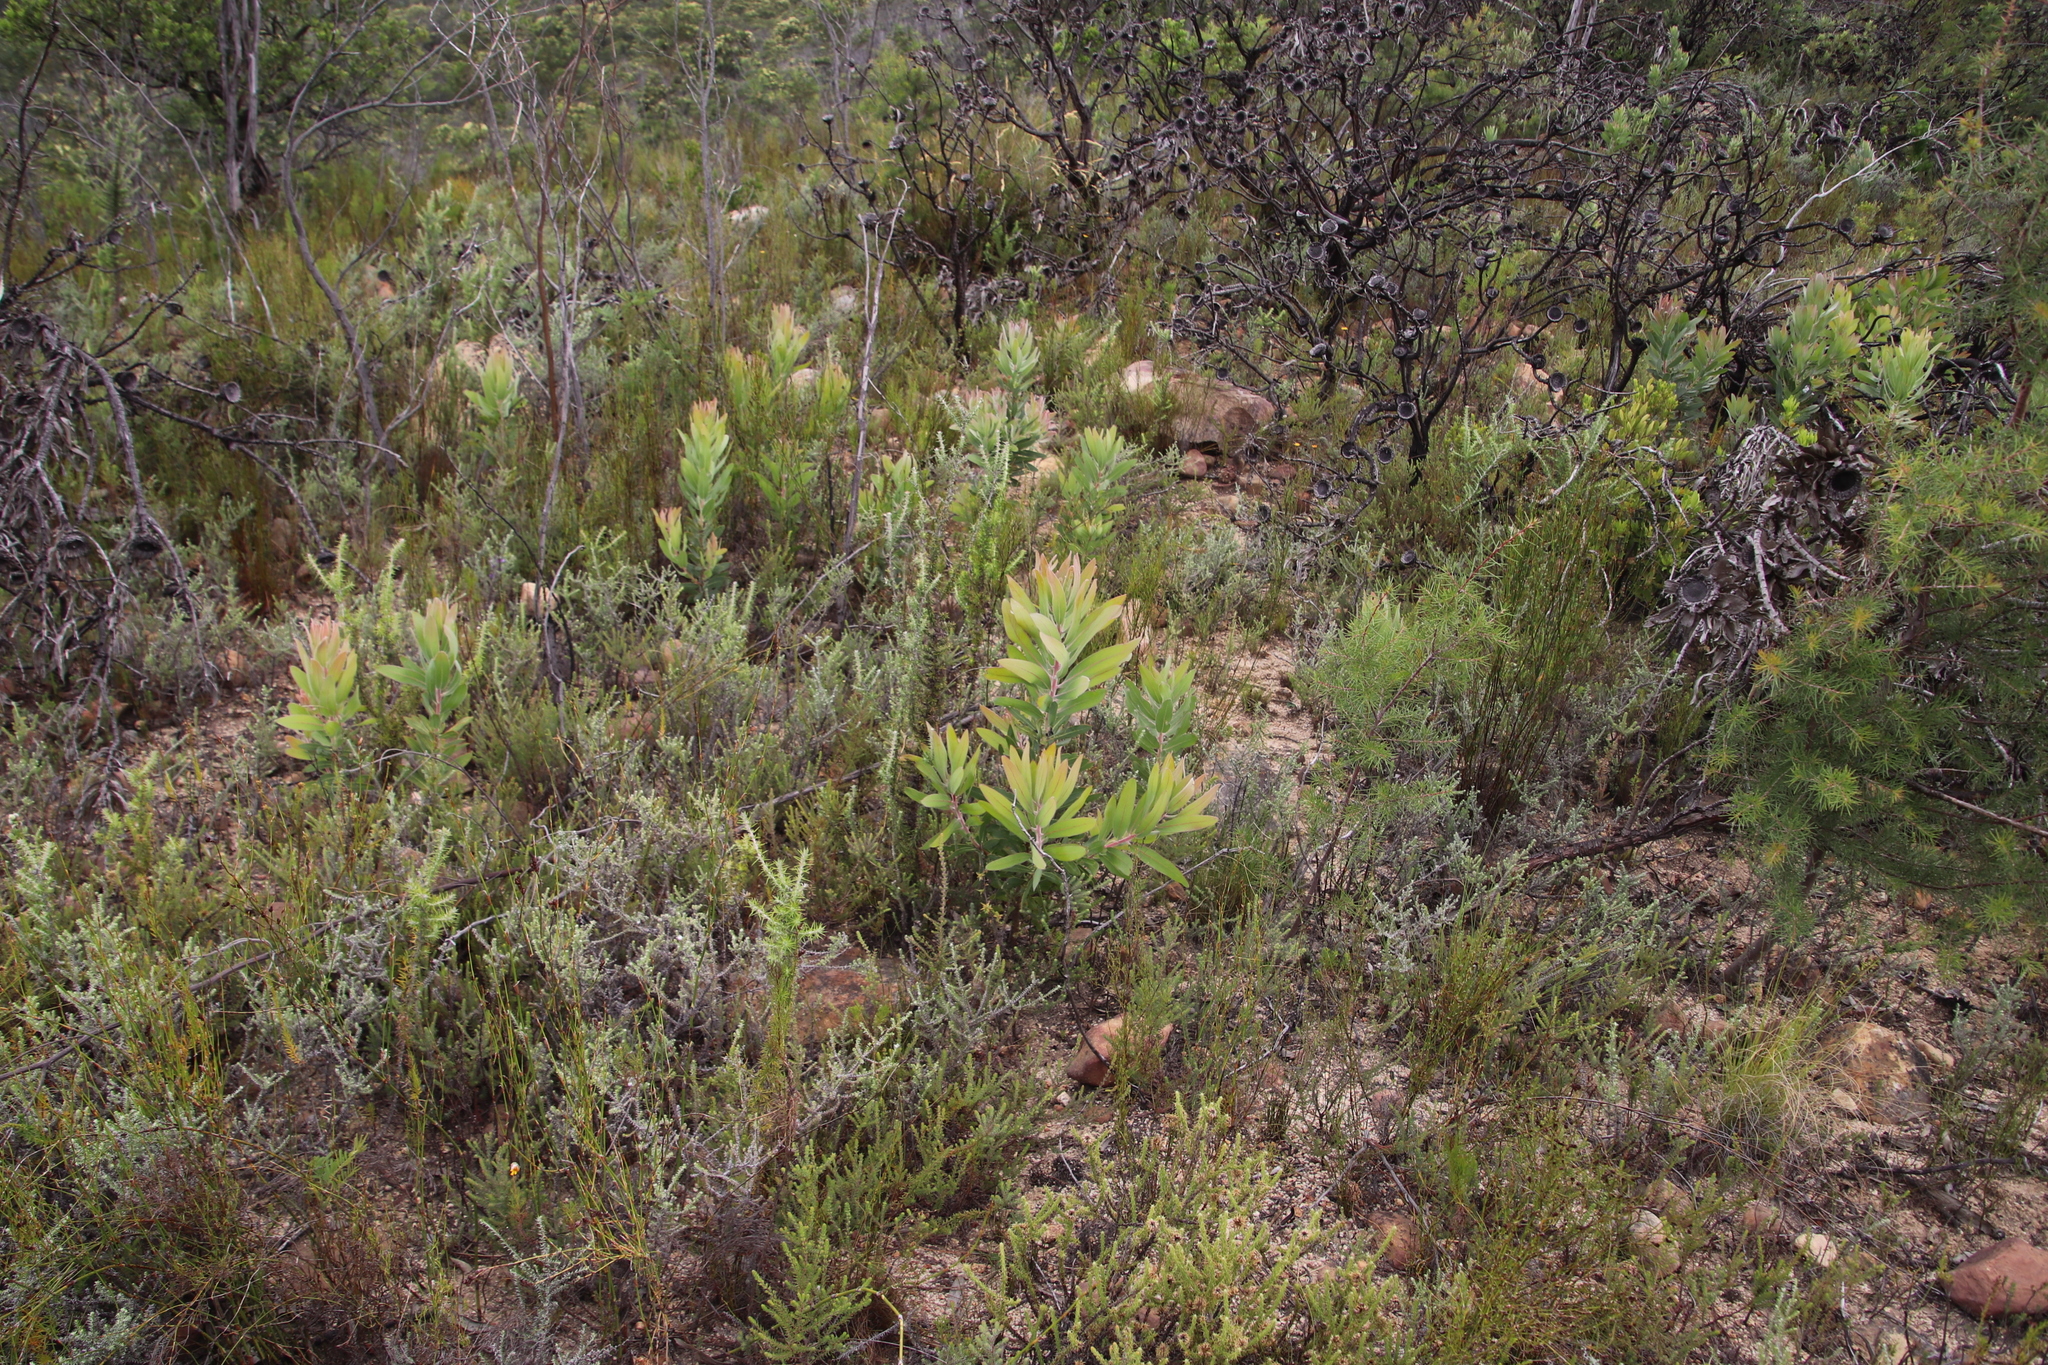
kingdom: Plantae
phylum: Tracheophyta
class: Magnoliopsida
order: Proteales
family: Proteaceae
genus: Protea
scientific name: Protea laurifolia
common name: Grey-leaf sugarbsh
